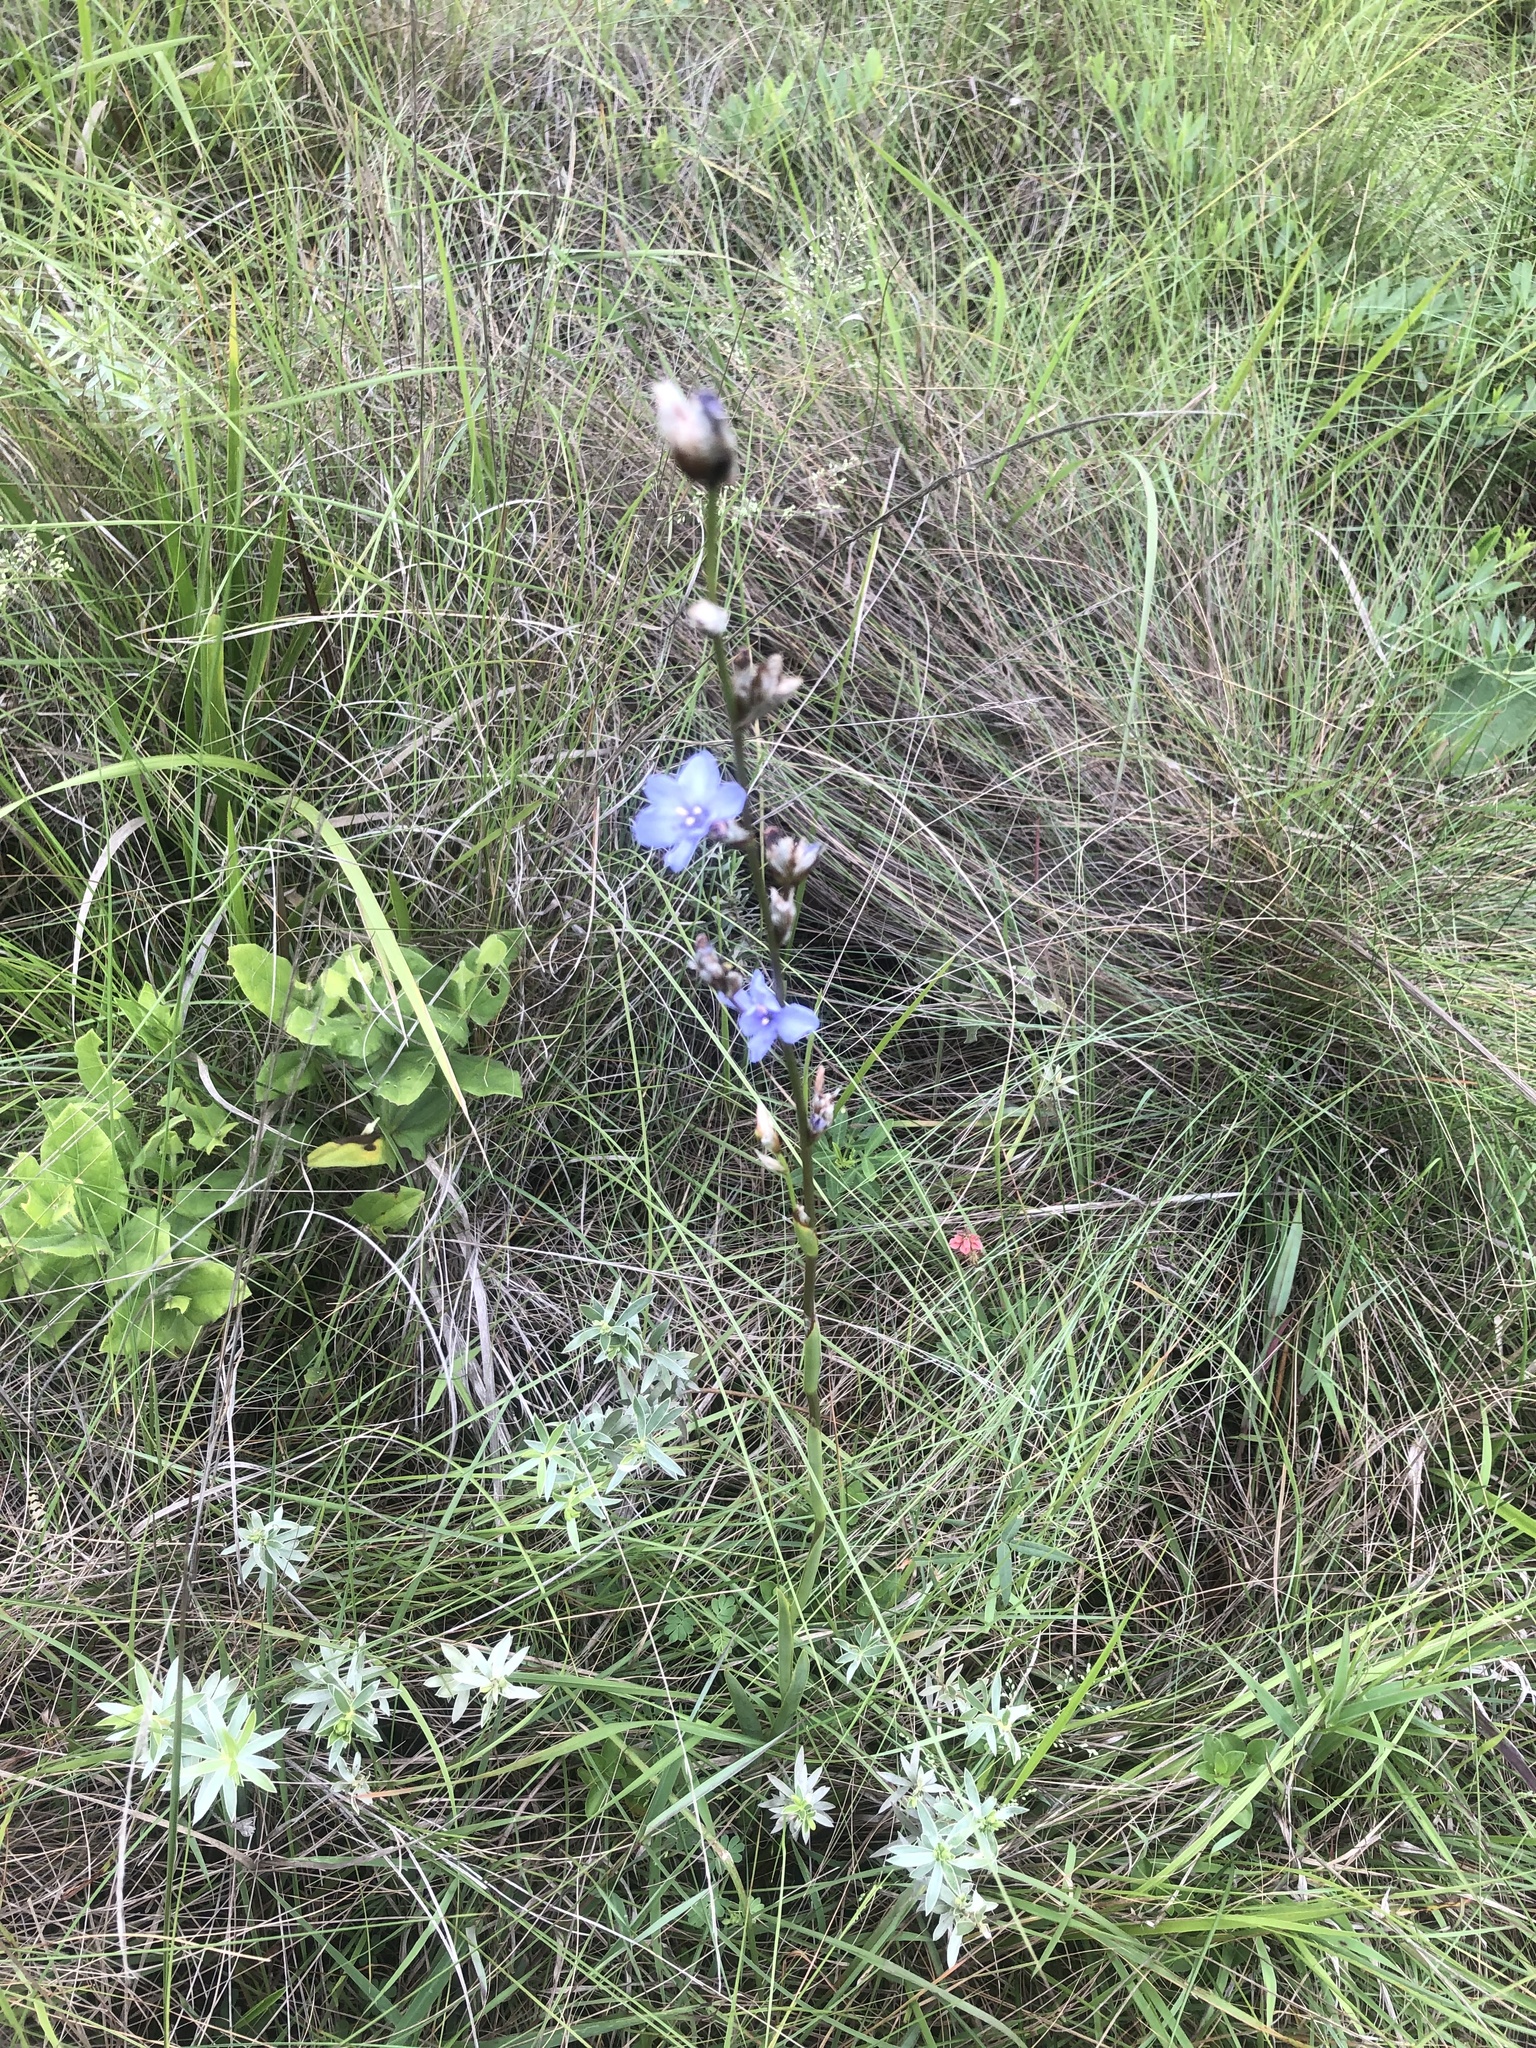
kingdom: Plantae
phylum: Tracheophyta
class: Liliopsida
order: Asparagales
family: Iridaceae
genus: Aristea
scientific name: Aristea torulosa
